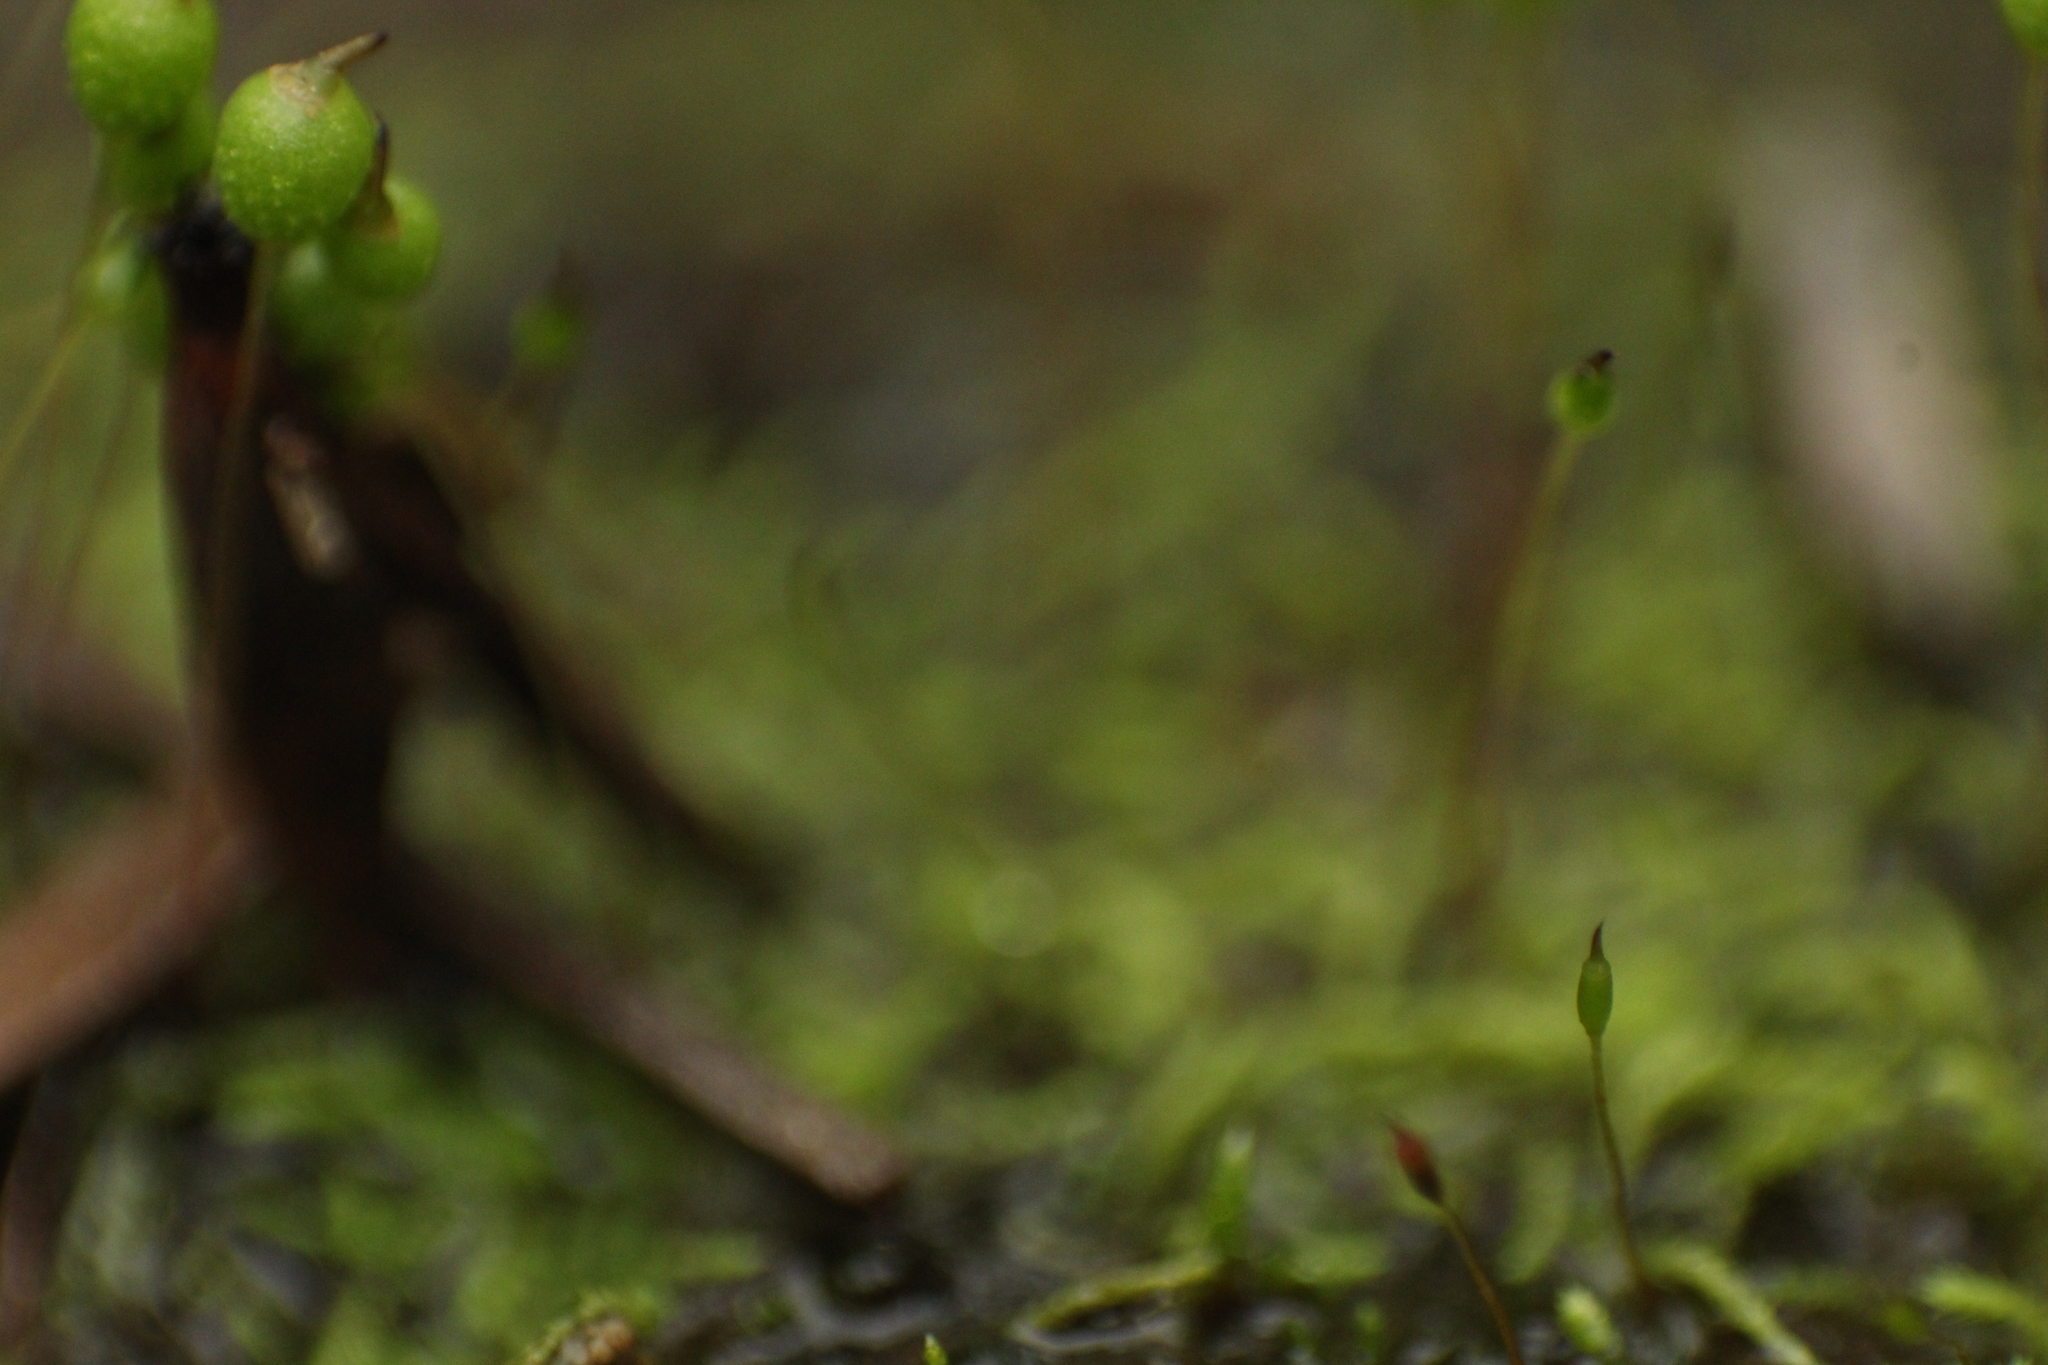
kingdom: Plantae
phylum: Bryophyta
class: Bryopsida
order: Bartramiales
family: Bartramiaceae
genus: Philonotis
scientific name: Philonotis australiensis
